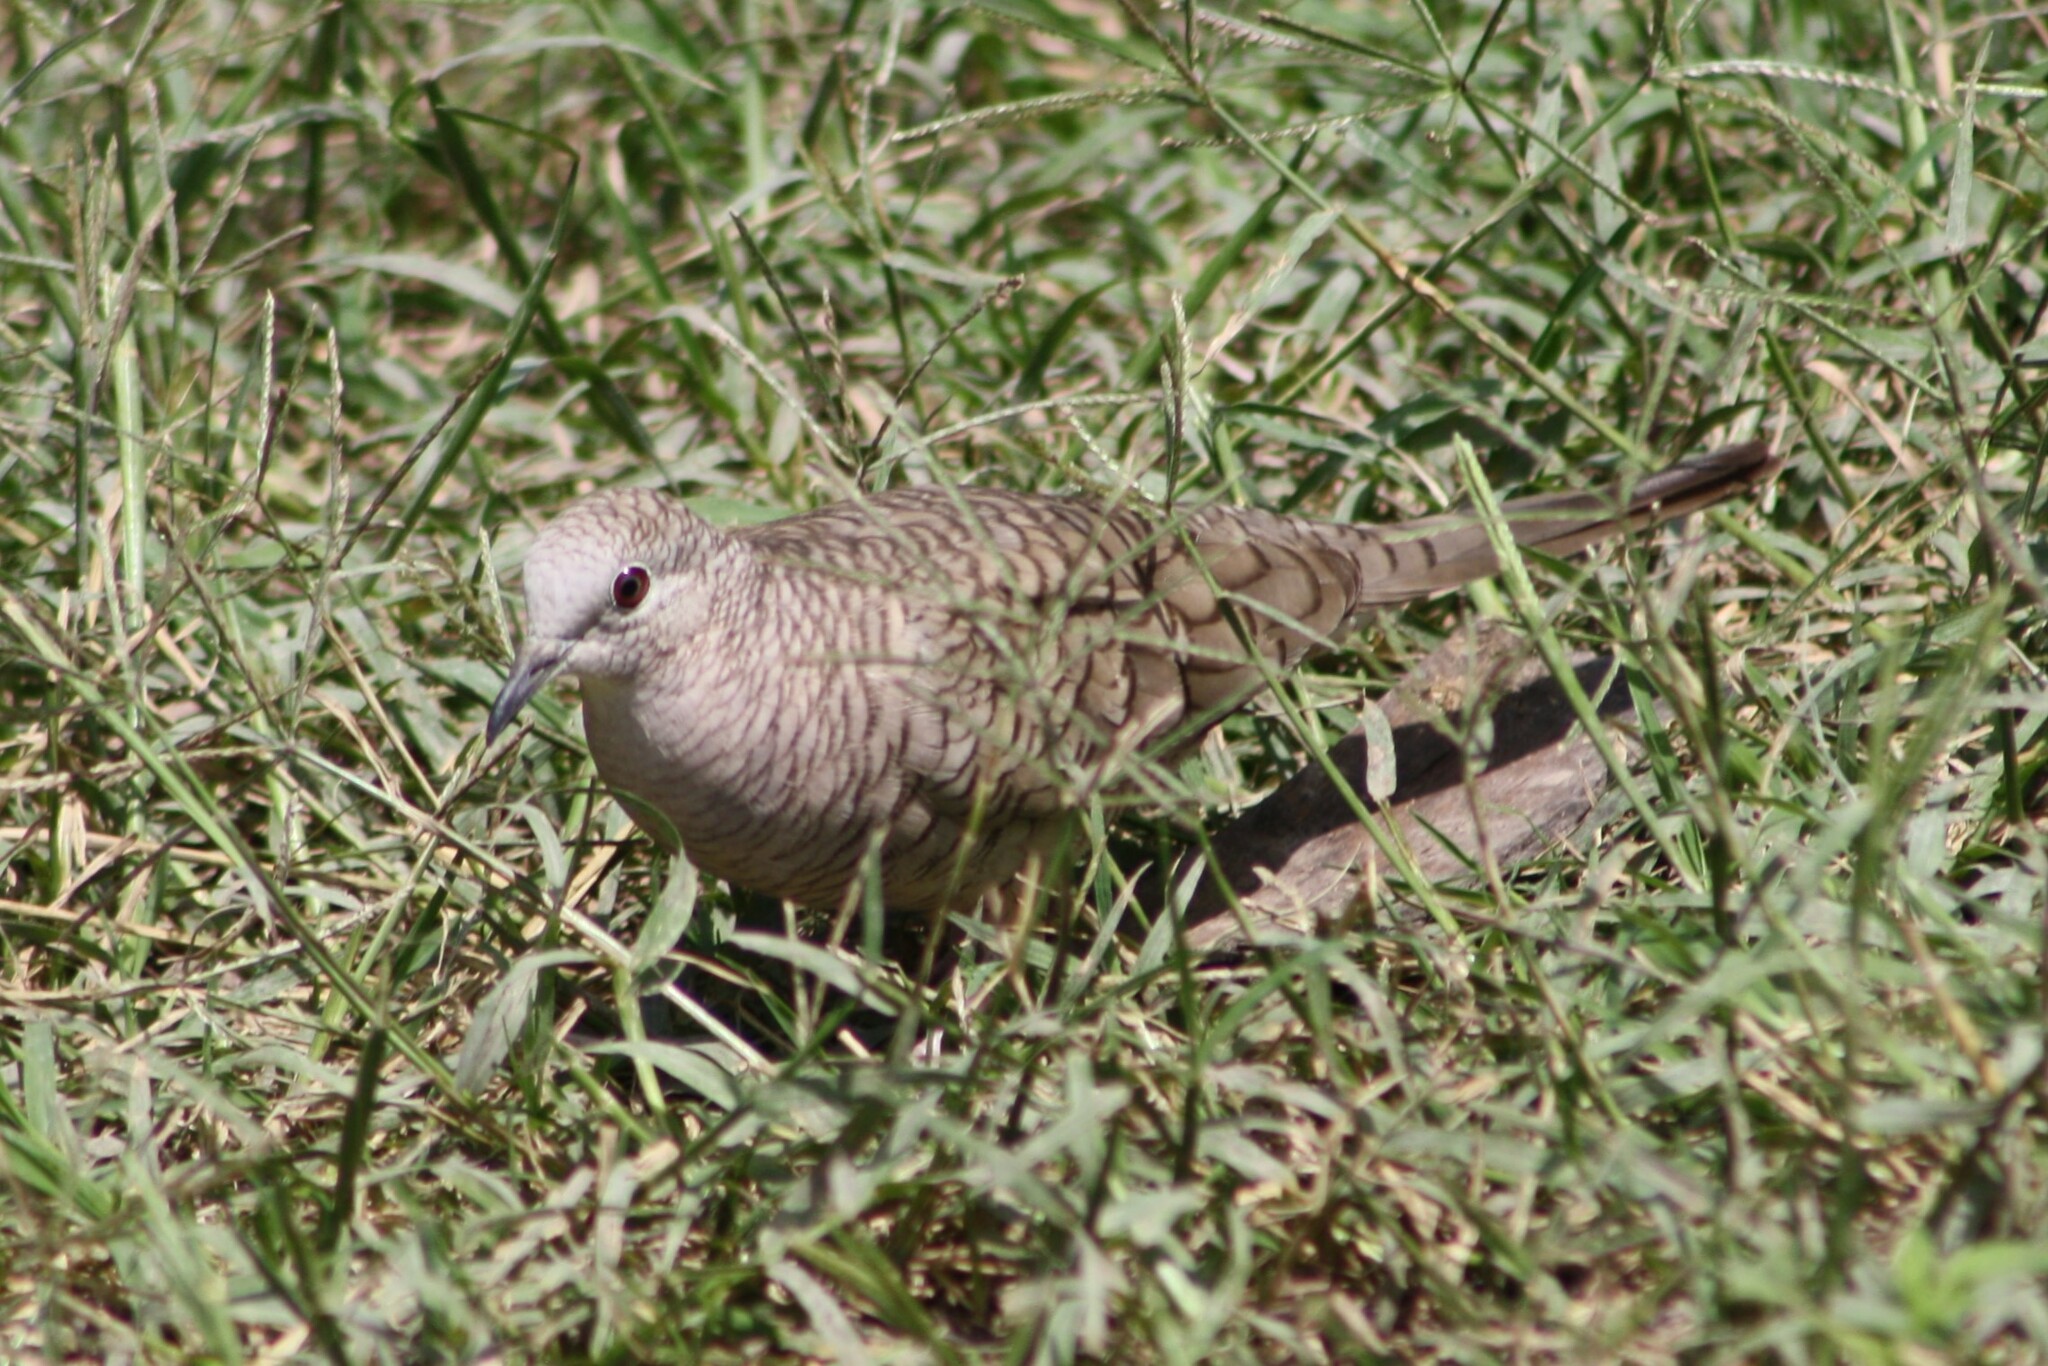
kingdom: Animalia
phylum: Chordata
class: Aves
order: Columbiformes
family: Columbidae
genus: Columbina
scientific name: Columbina inca
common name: Inca dove
